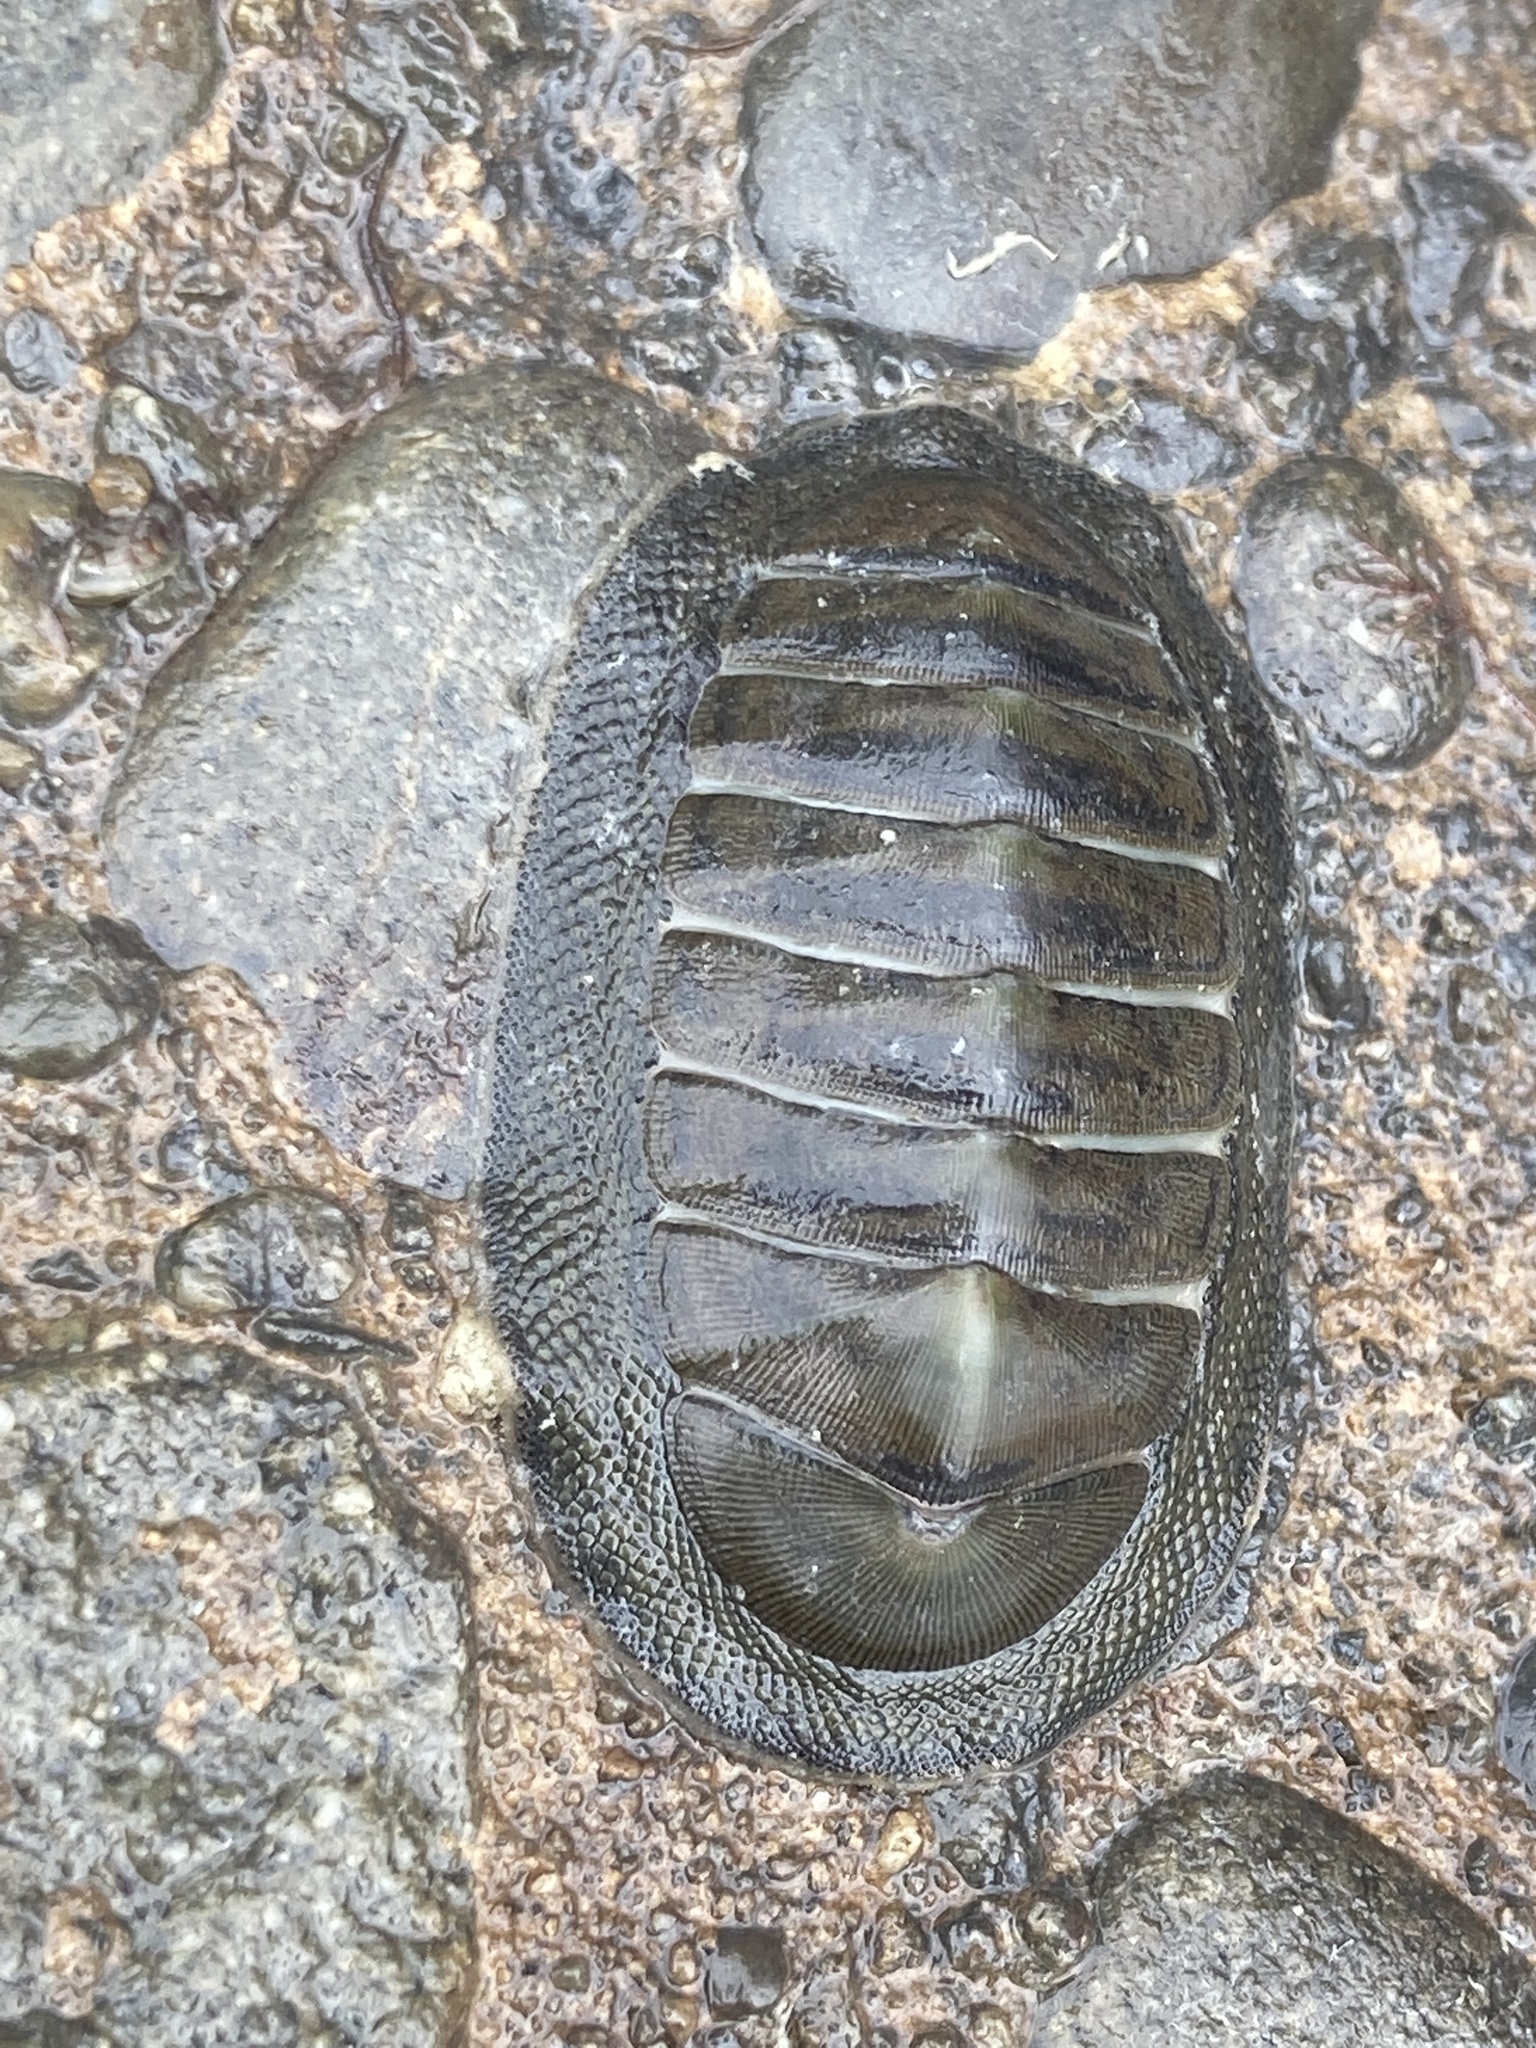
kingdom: Animalia
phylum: Mollusca
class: Polyplacophora
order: Chitonida
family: Chitonidae
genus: Chiton
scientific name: Chiton glaucus
